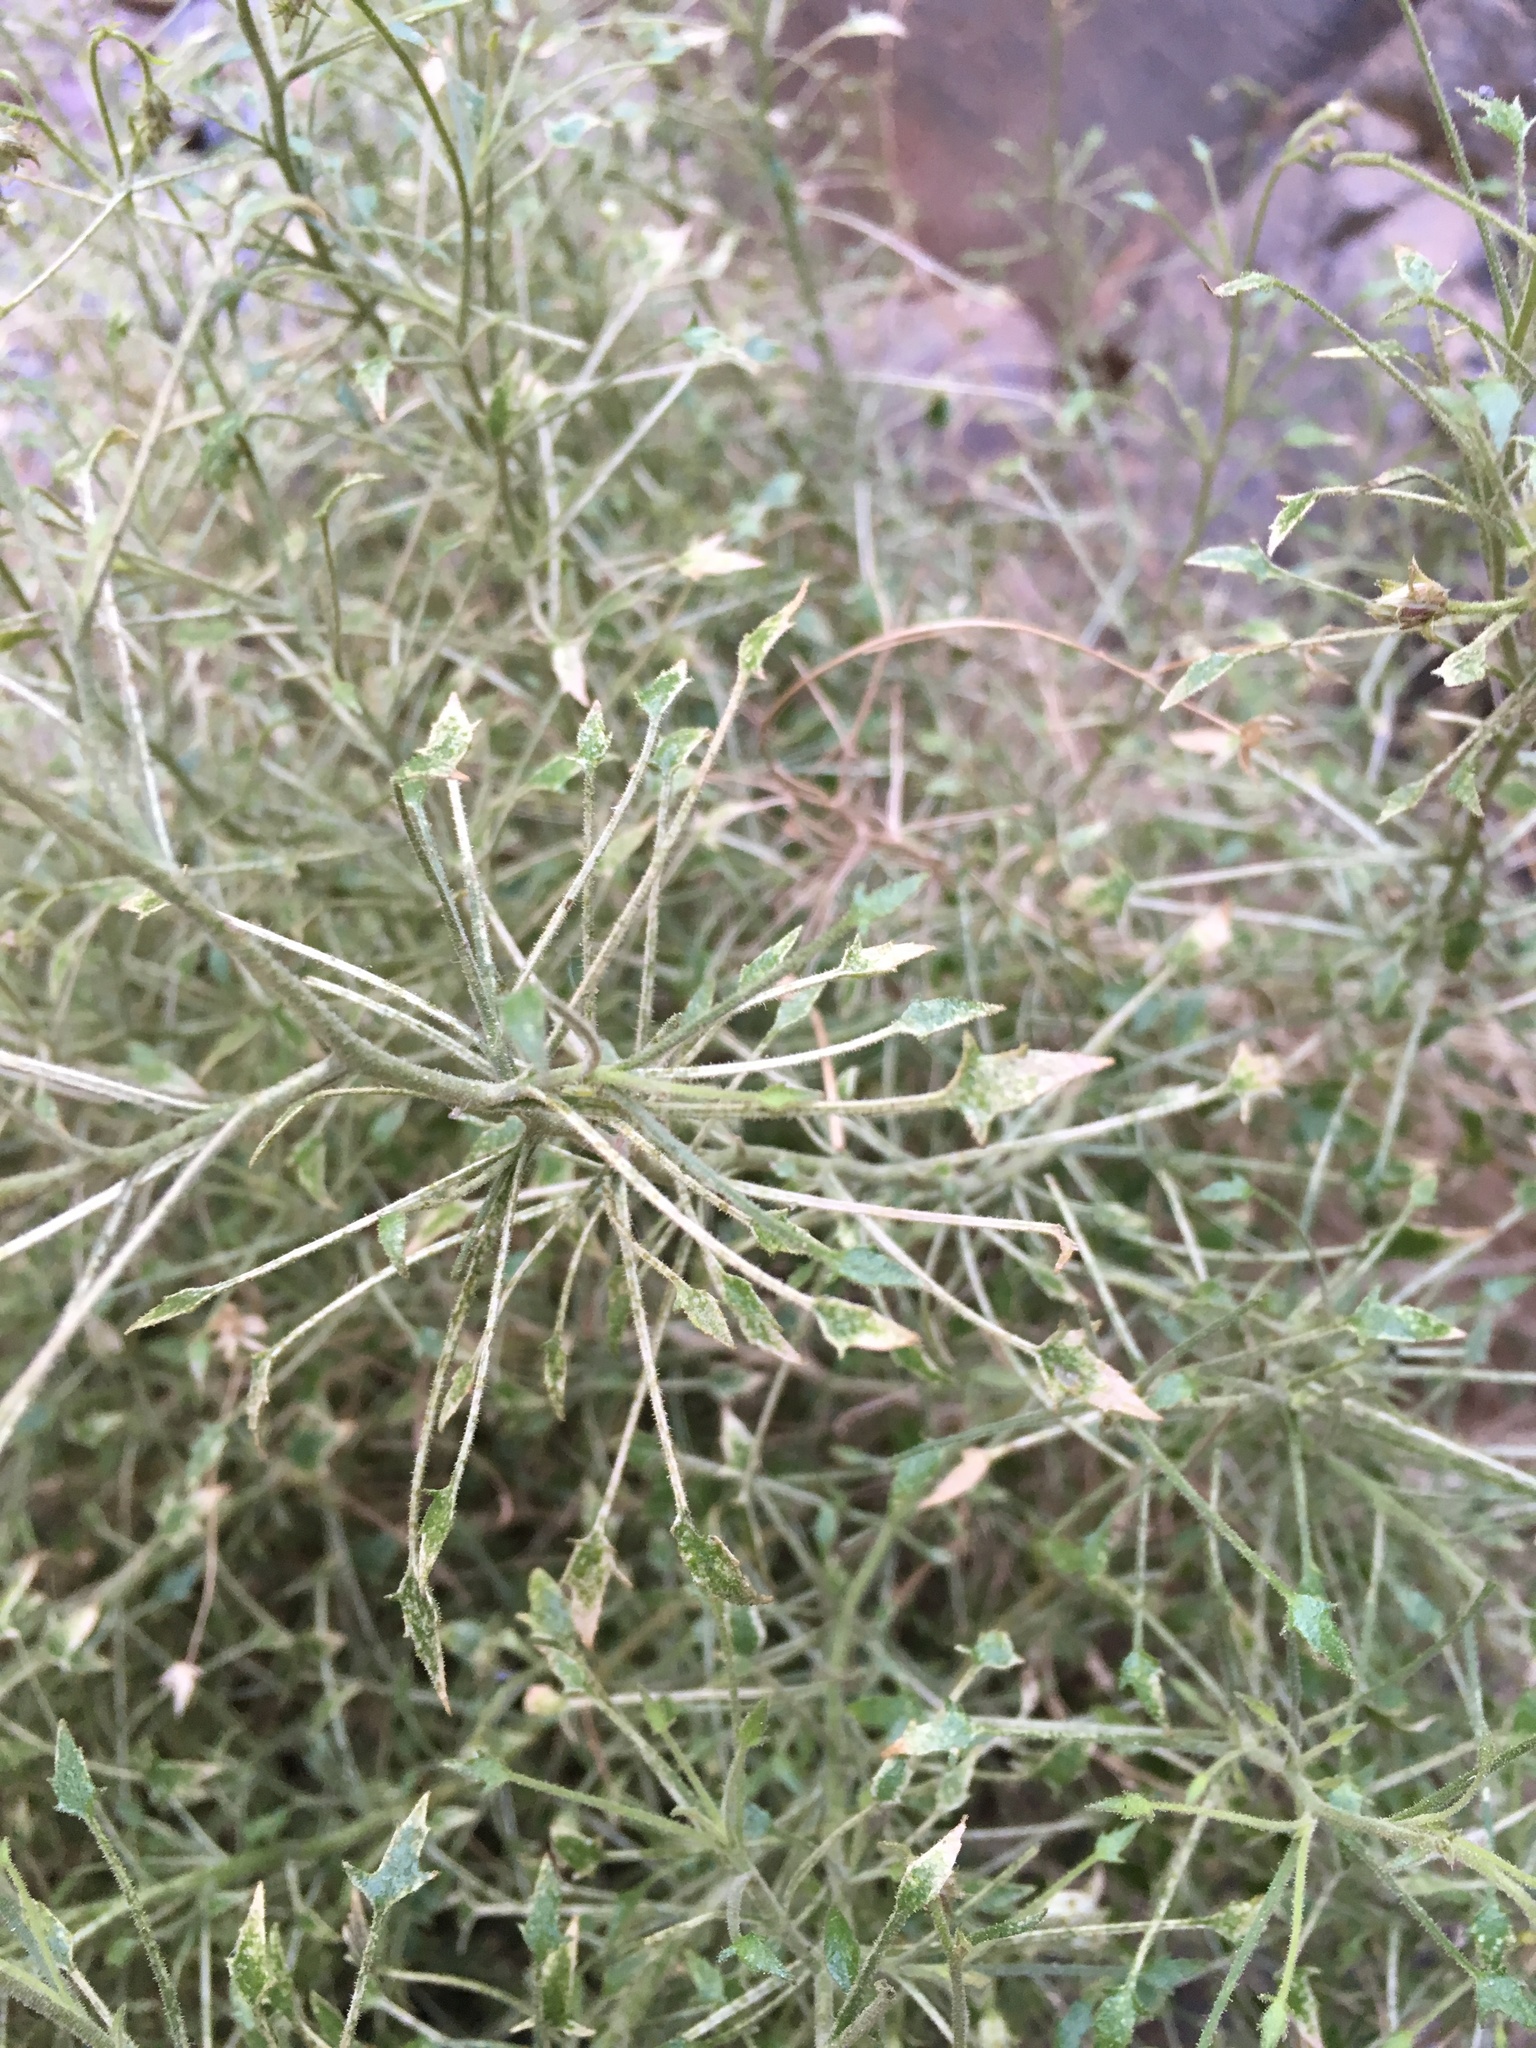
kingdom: Plantae
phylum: Tracheophyta
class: Magnoliopsida
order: Asterales
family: Asteraceae
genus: Pleurocoronis
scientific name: Pleurocoronis pluriseta
